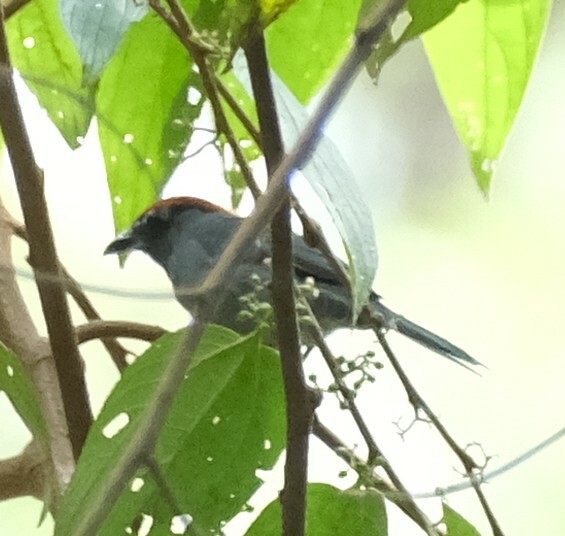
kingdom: Animalia
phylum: Chordata
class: Aves
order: Passeriformes
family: Thraupidae
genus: Creurgops
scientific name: Creurgops dentatus
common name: Slaty tanager
